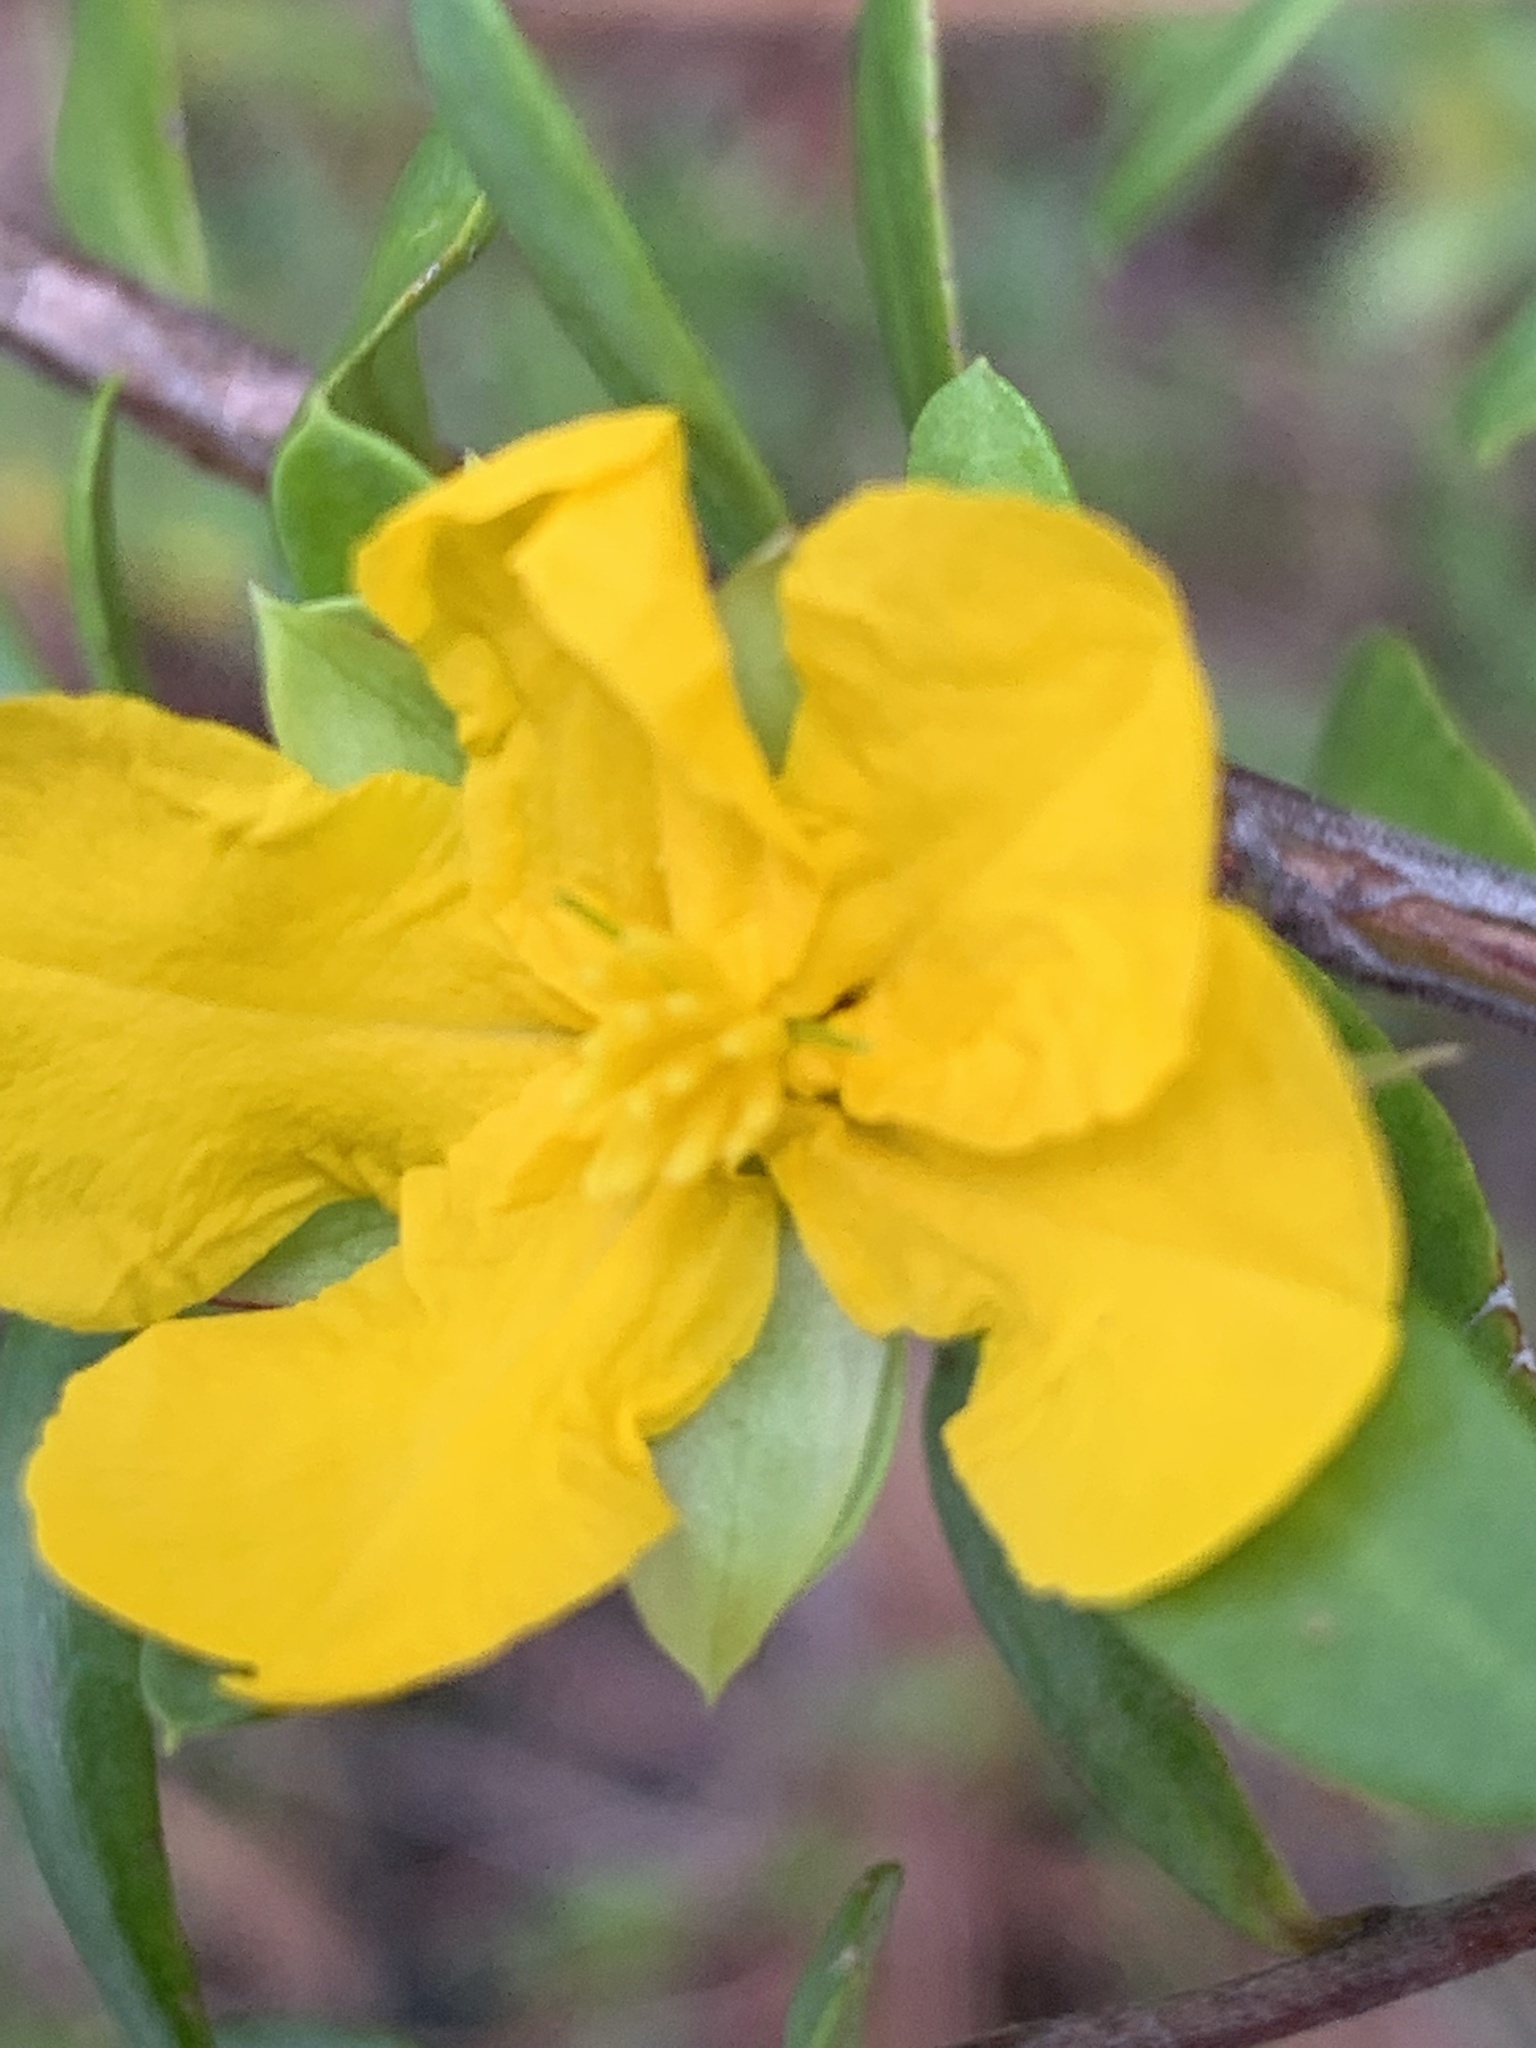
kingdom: Plantae
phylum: Tracheophyta
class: Magnoliopsida
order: Dilleniales
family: Dilleniaceae
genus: Hibbertia
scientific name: Hibbertia nitida
